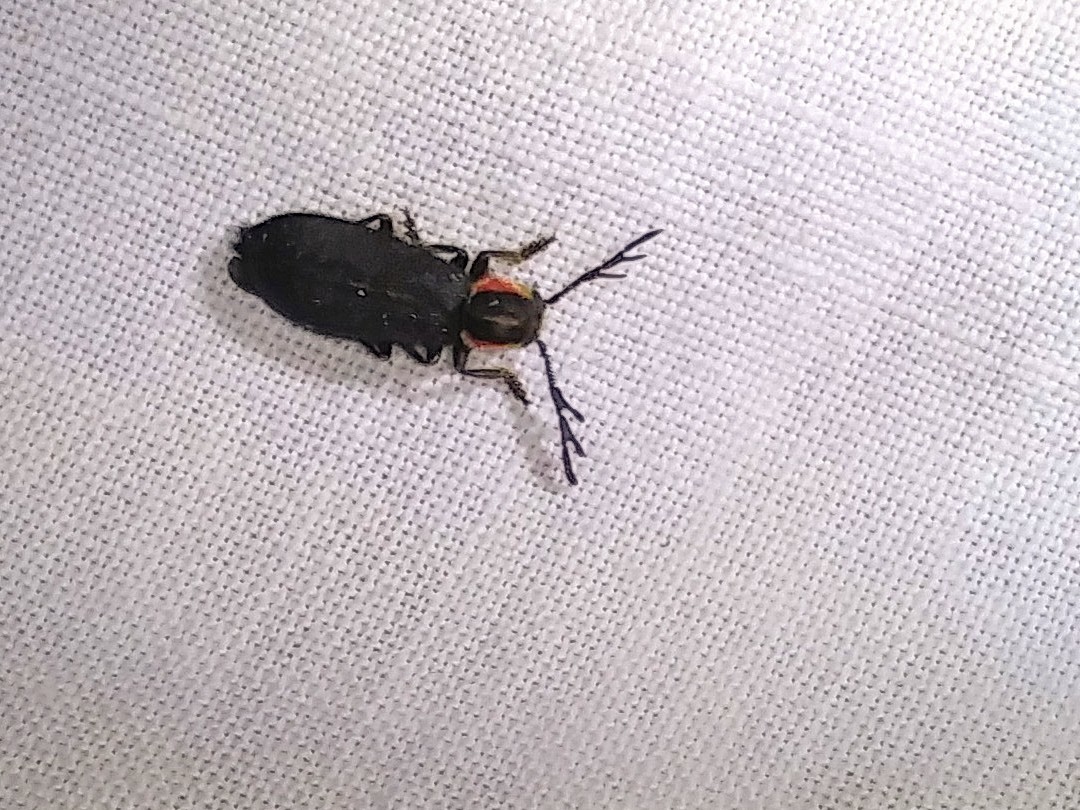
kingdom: Animalia
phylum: Arthropoda
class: Insecta
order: Coleoptera
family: Cleridae
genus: Chariessa
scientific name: Chariessa pilosa
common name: Pilose checkered beetle
